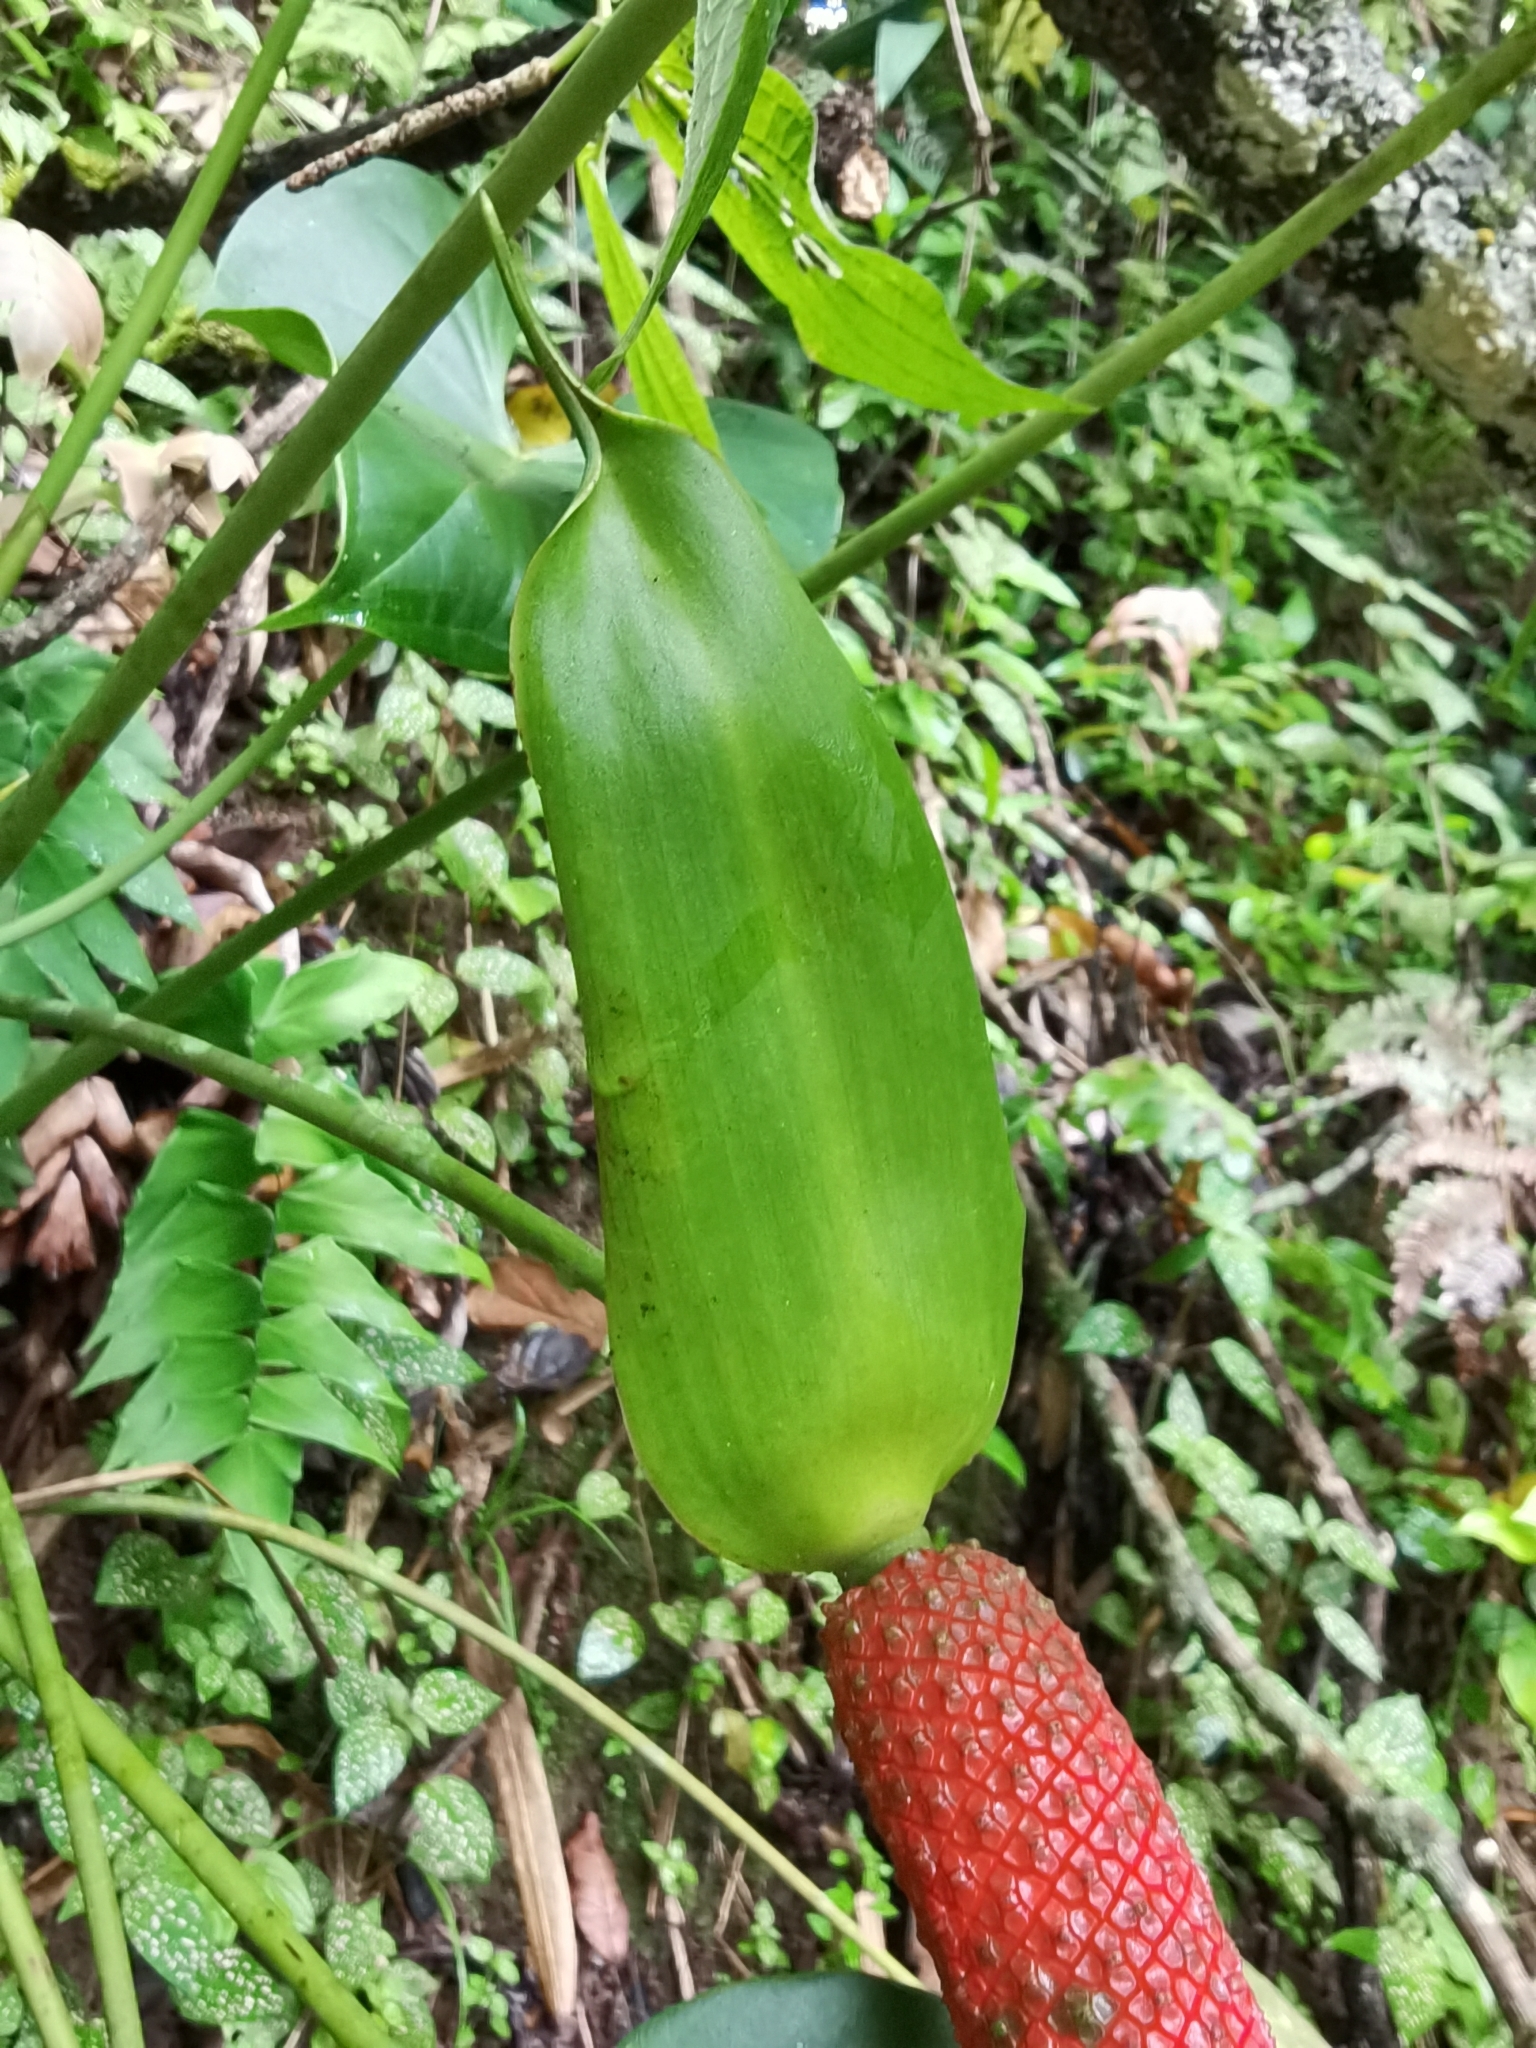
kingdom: Plantae
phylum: Tracheophyta
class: Liliopsida
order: Alismatales
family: Araceae
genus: Anthurium
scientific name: Anthurium hoffmannii
